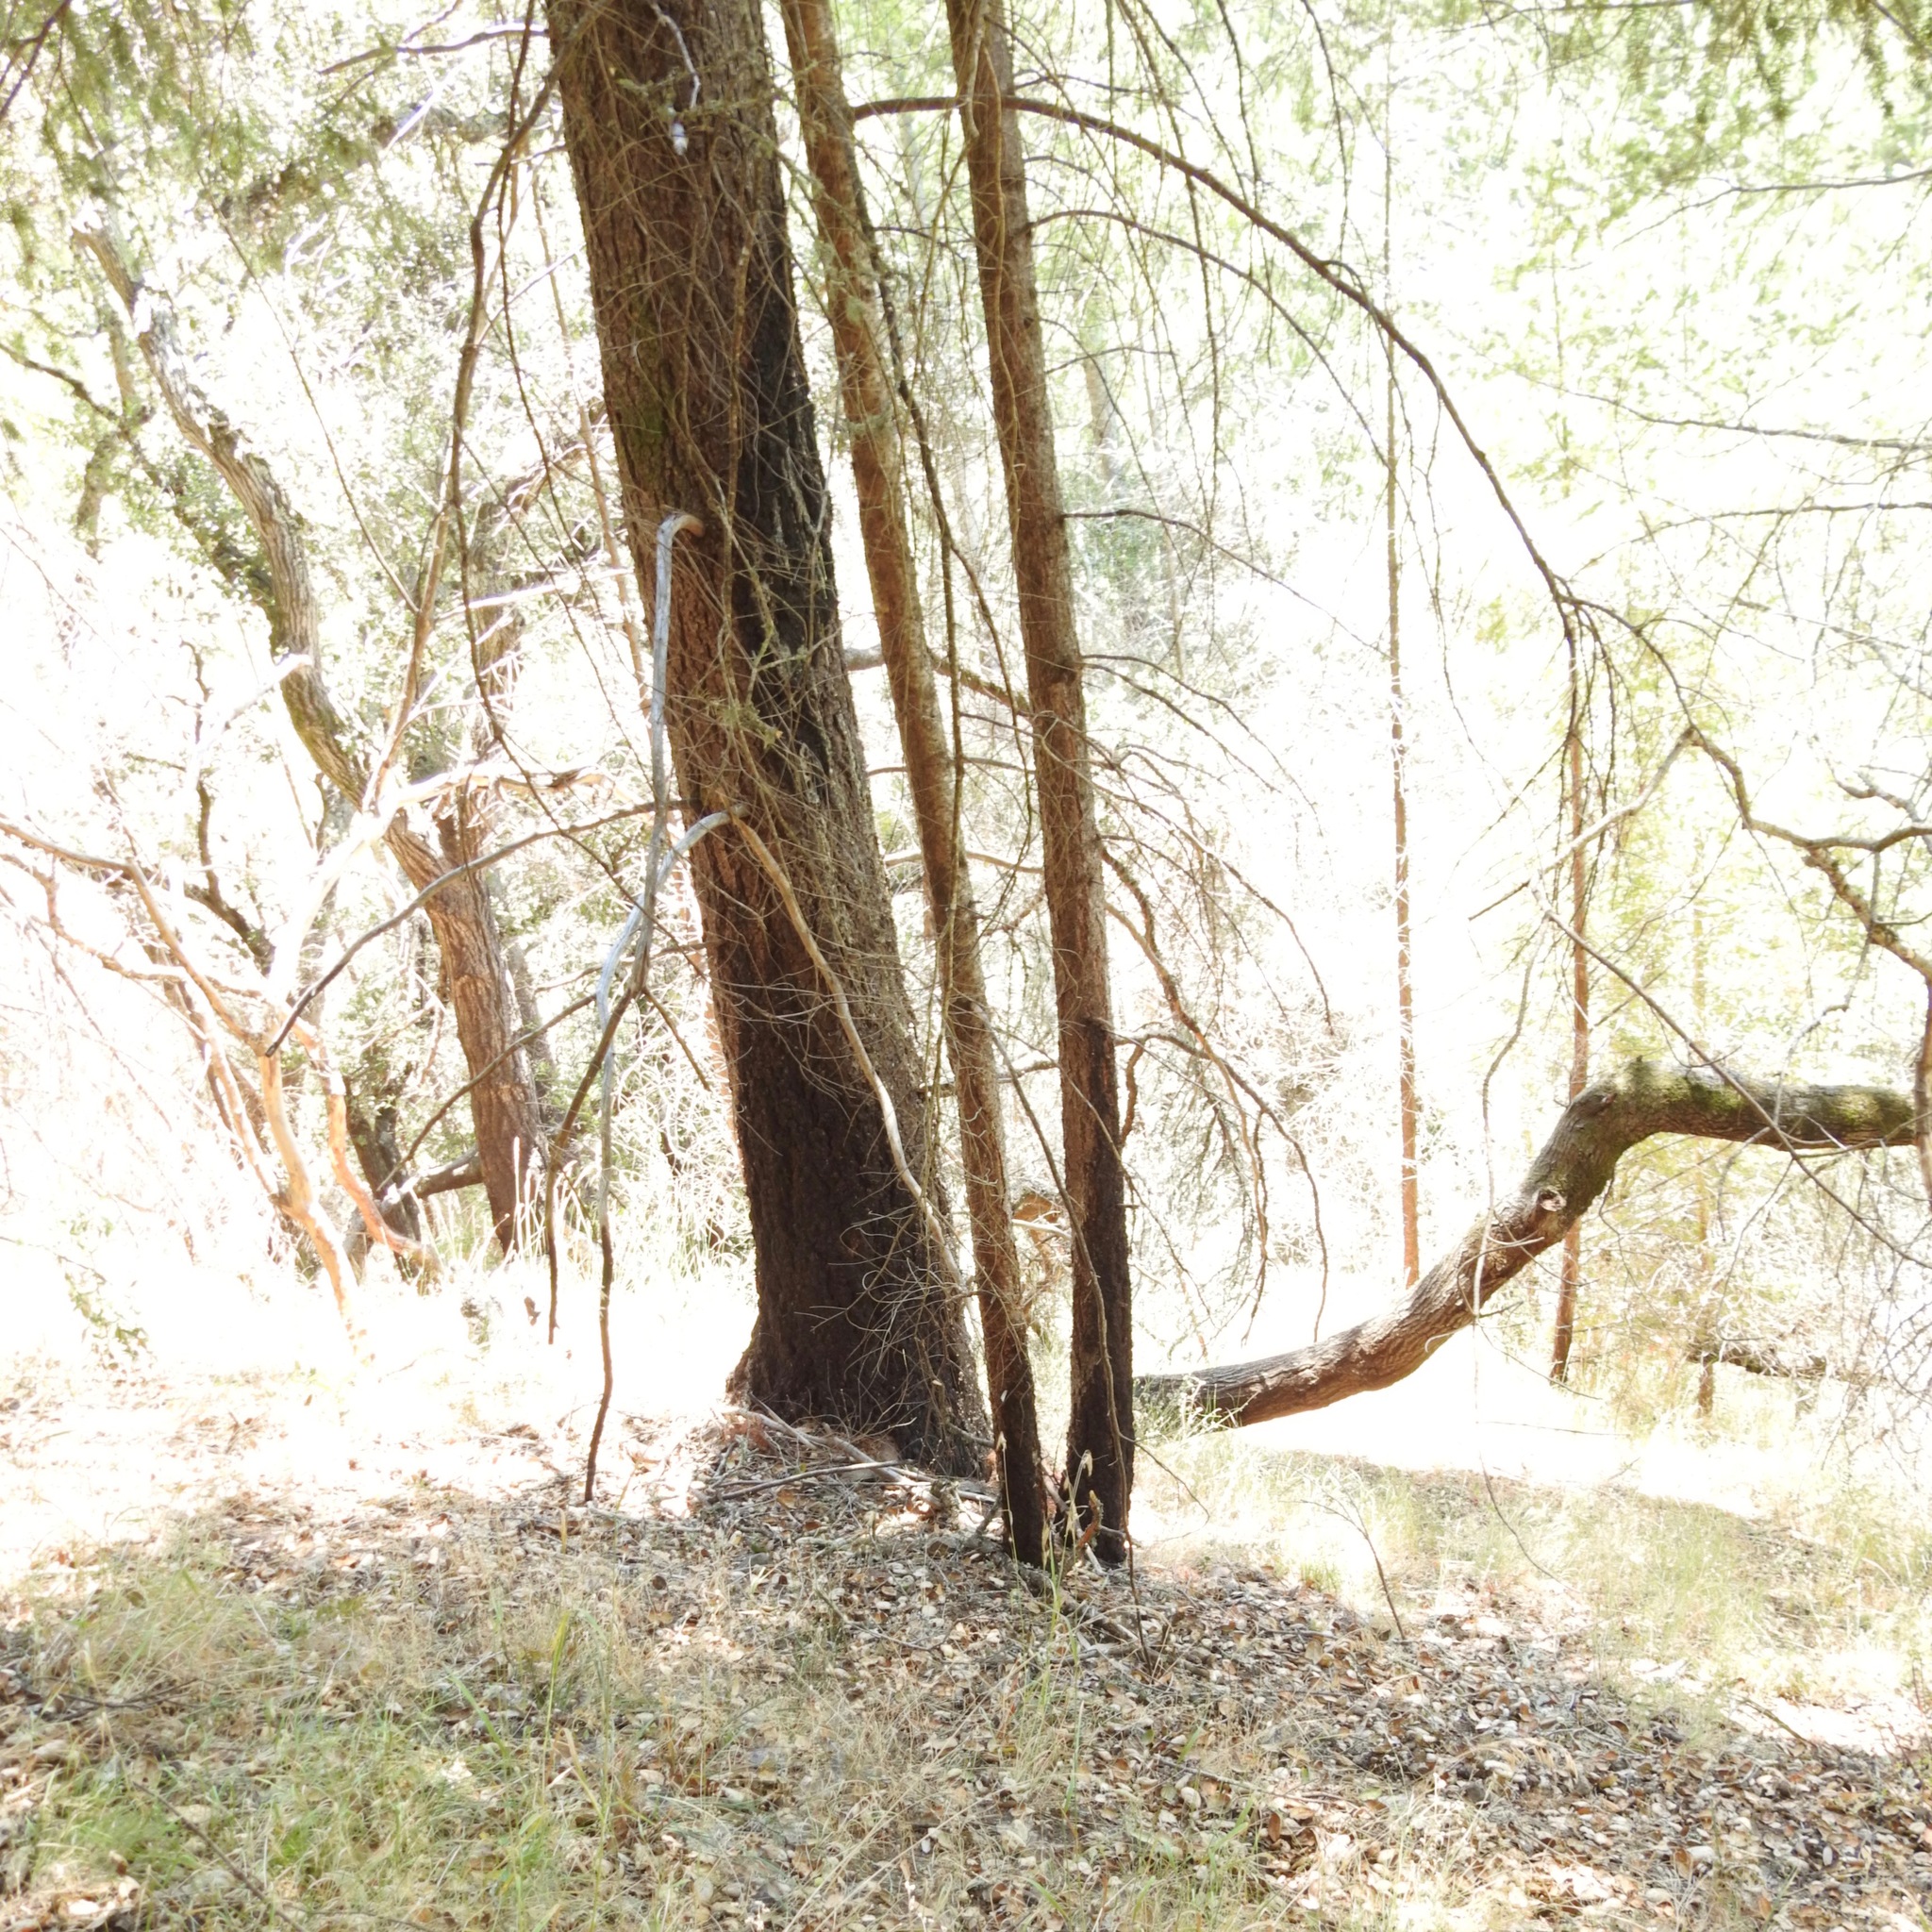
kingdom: Plantae
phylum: Tracheophyta
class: Pinopsida
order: Pinales
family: Pinaceae
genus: Pseudotsuga
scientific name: Pseudotsuga menziesii
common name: Douglas fir
